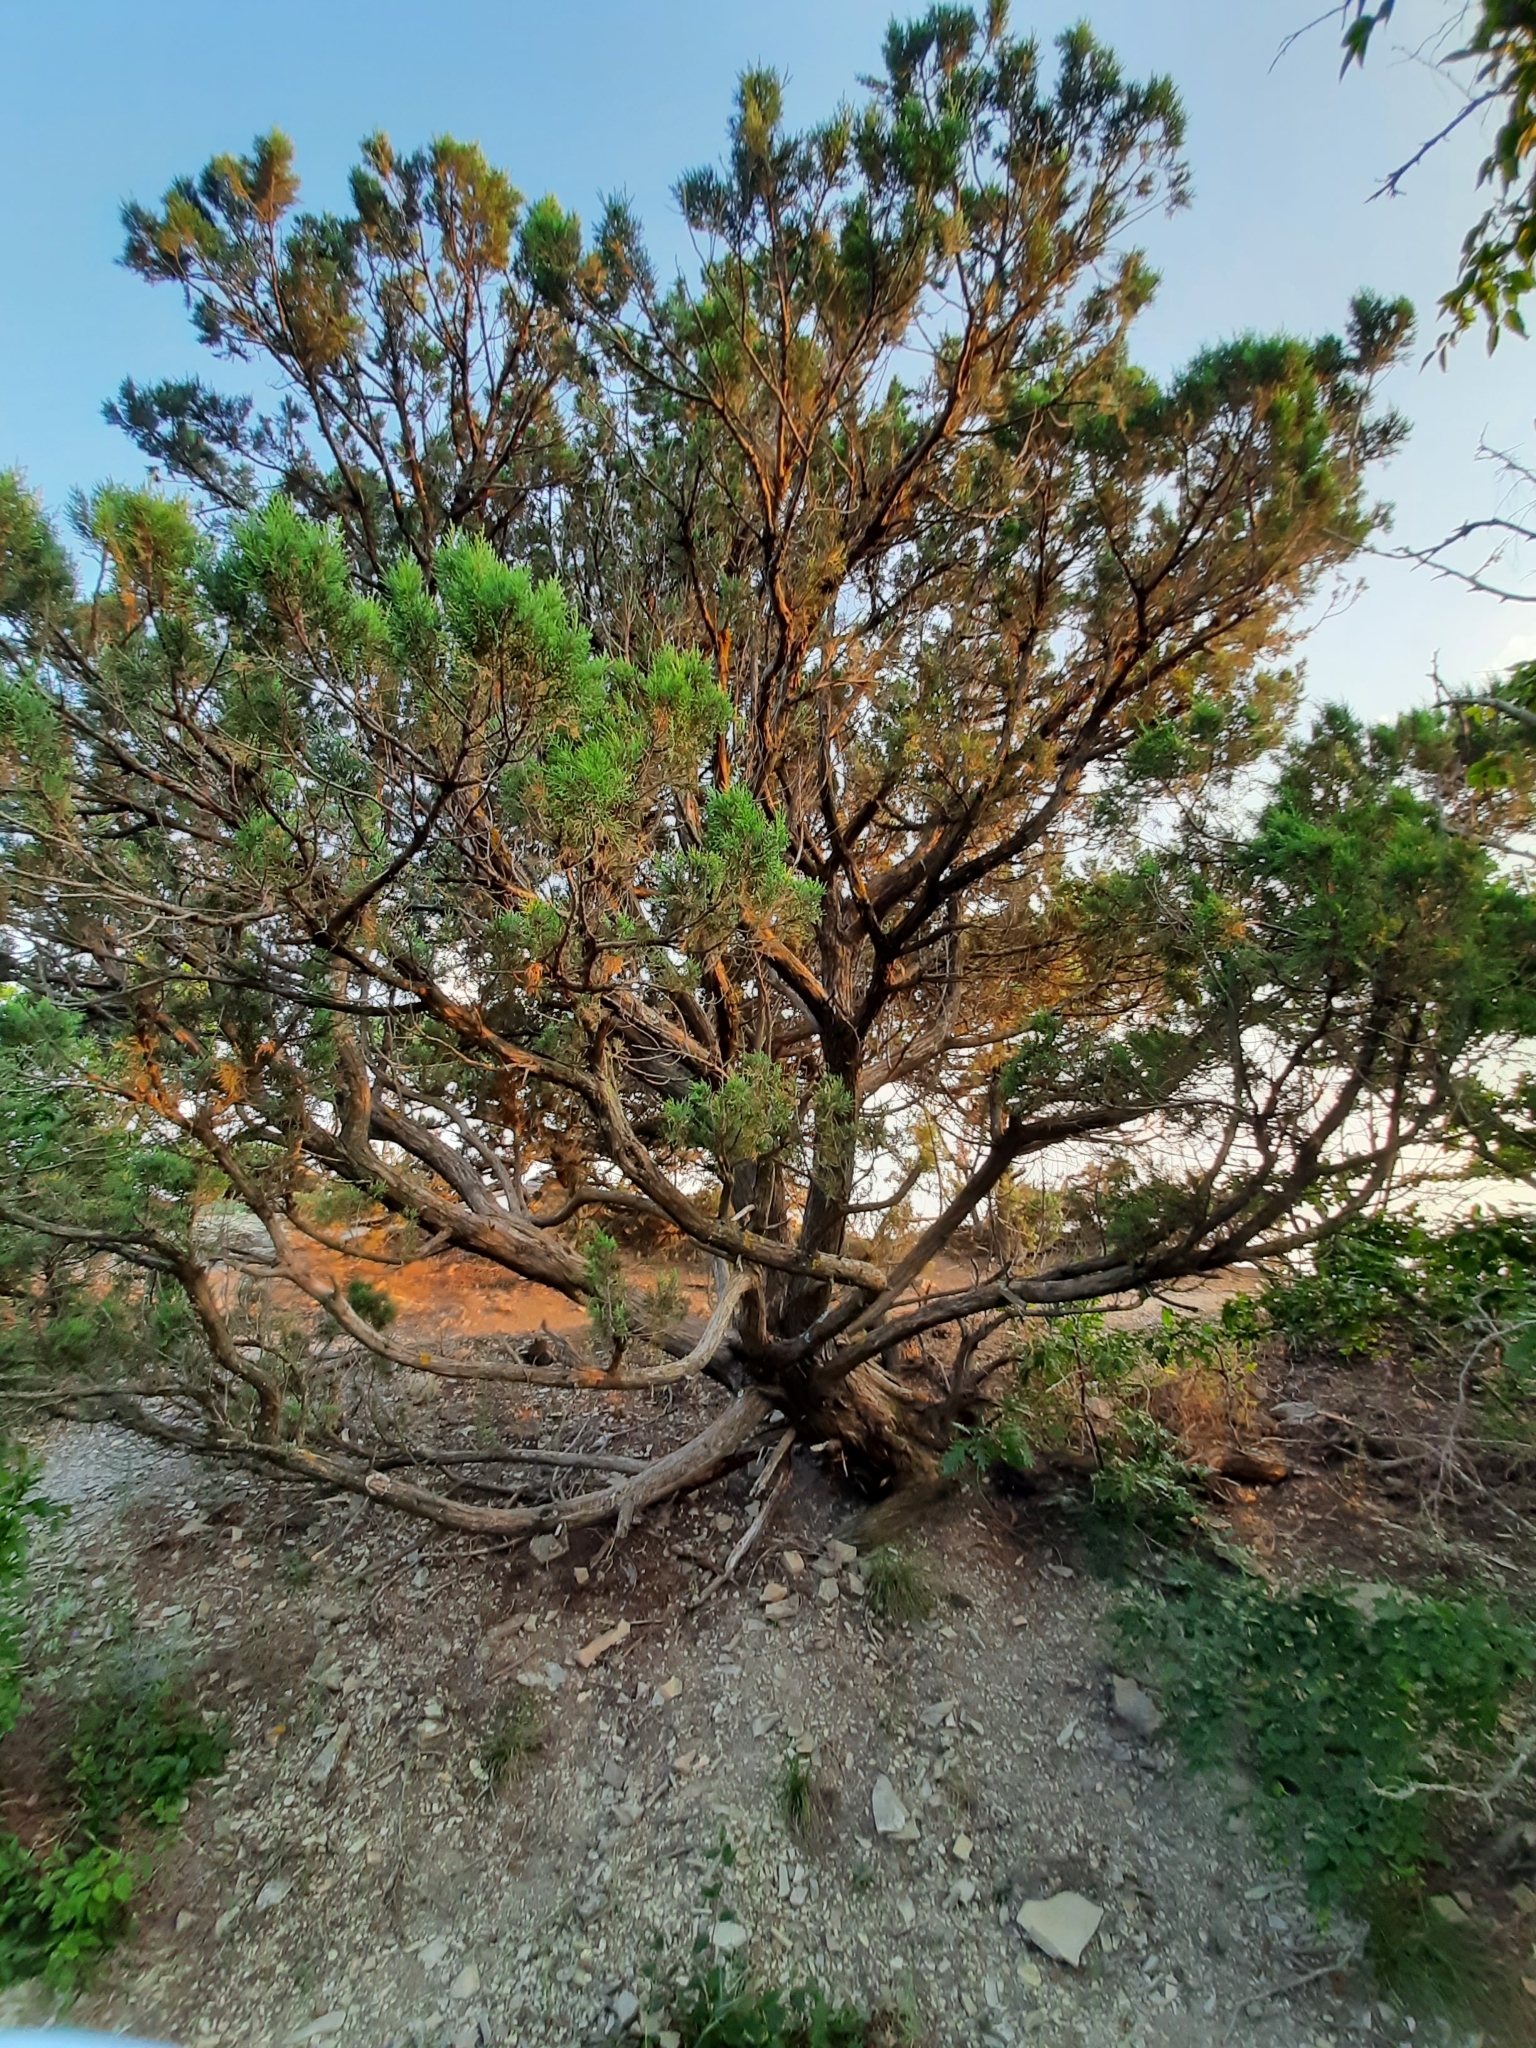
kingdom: Plantae
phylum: Tracheophyta
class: Pinopsida
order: Pinales
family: Cupressaceae
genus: Juniperus
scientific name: Juniperus excelsa
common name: Crimean juniper
